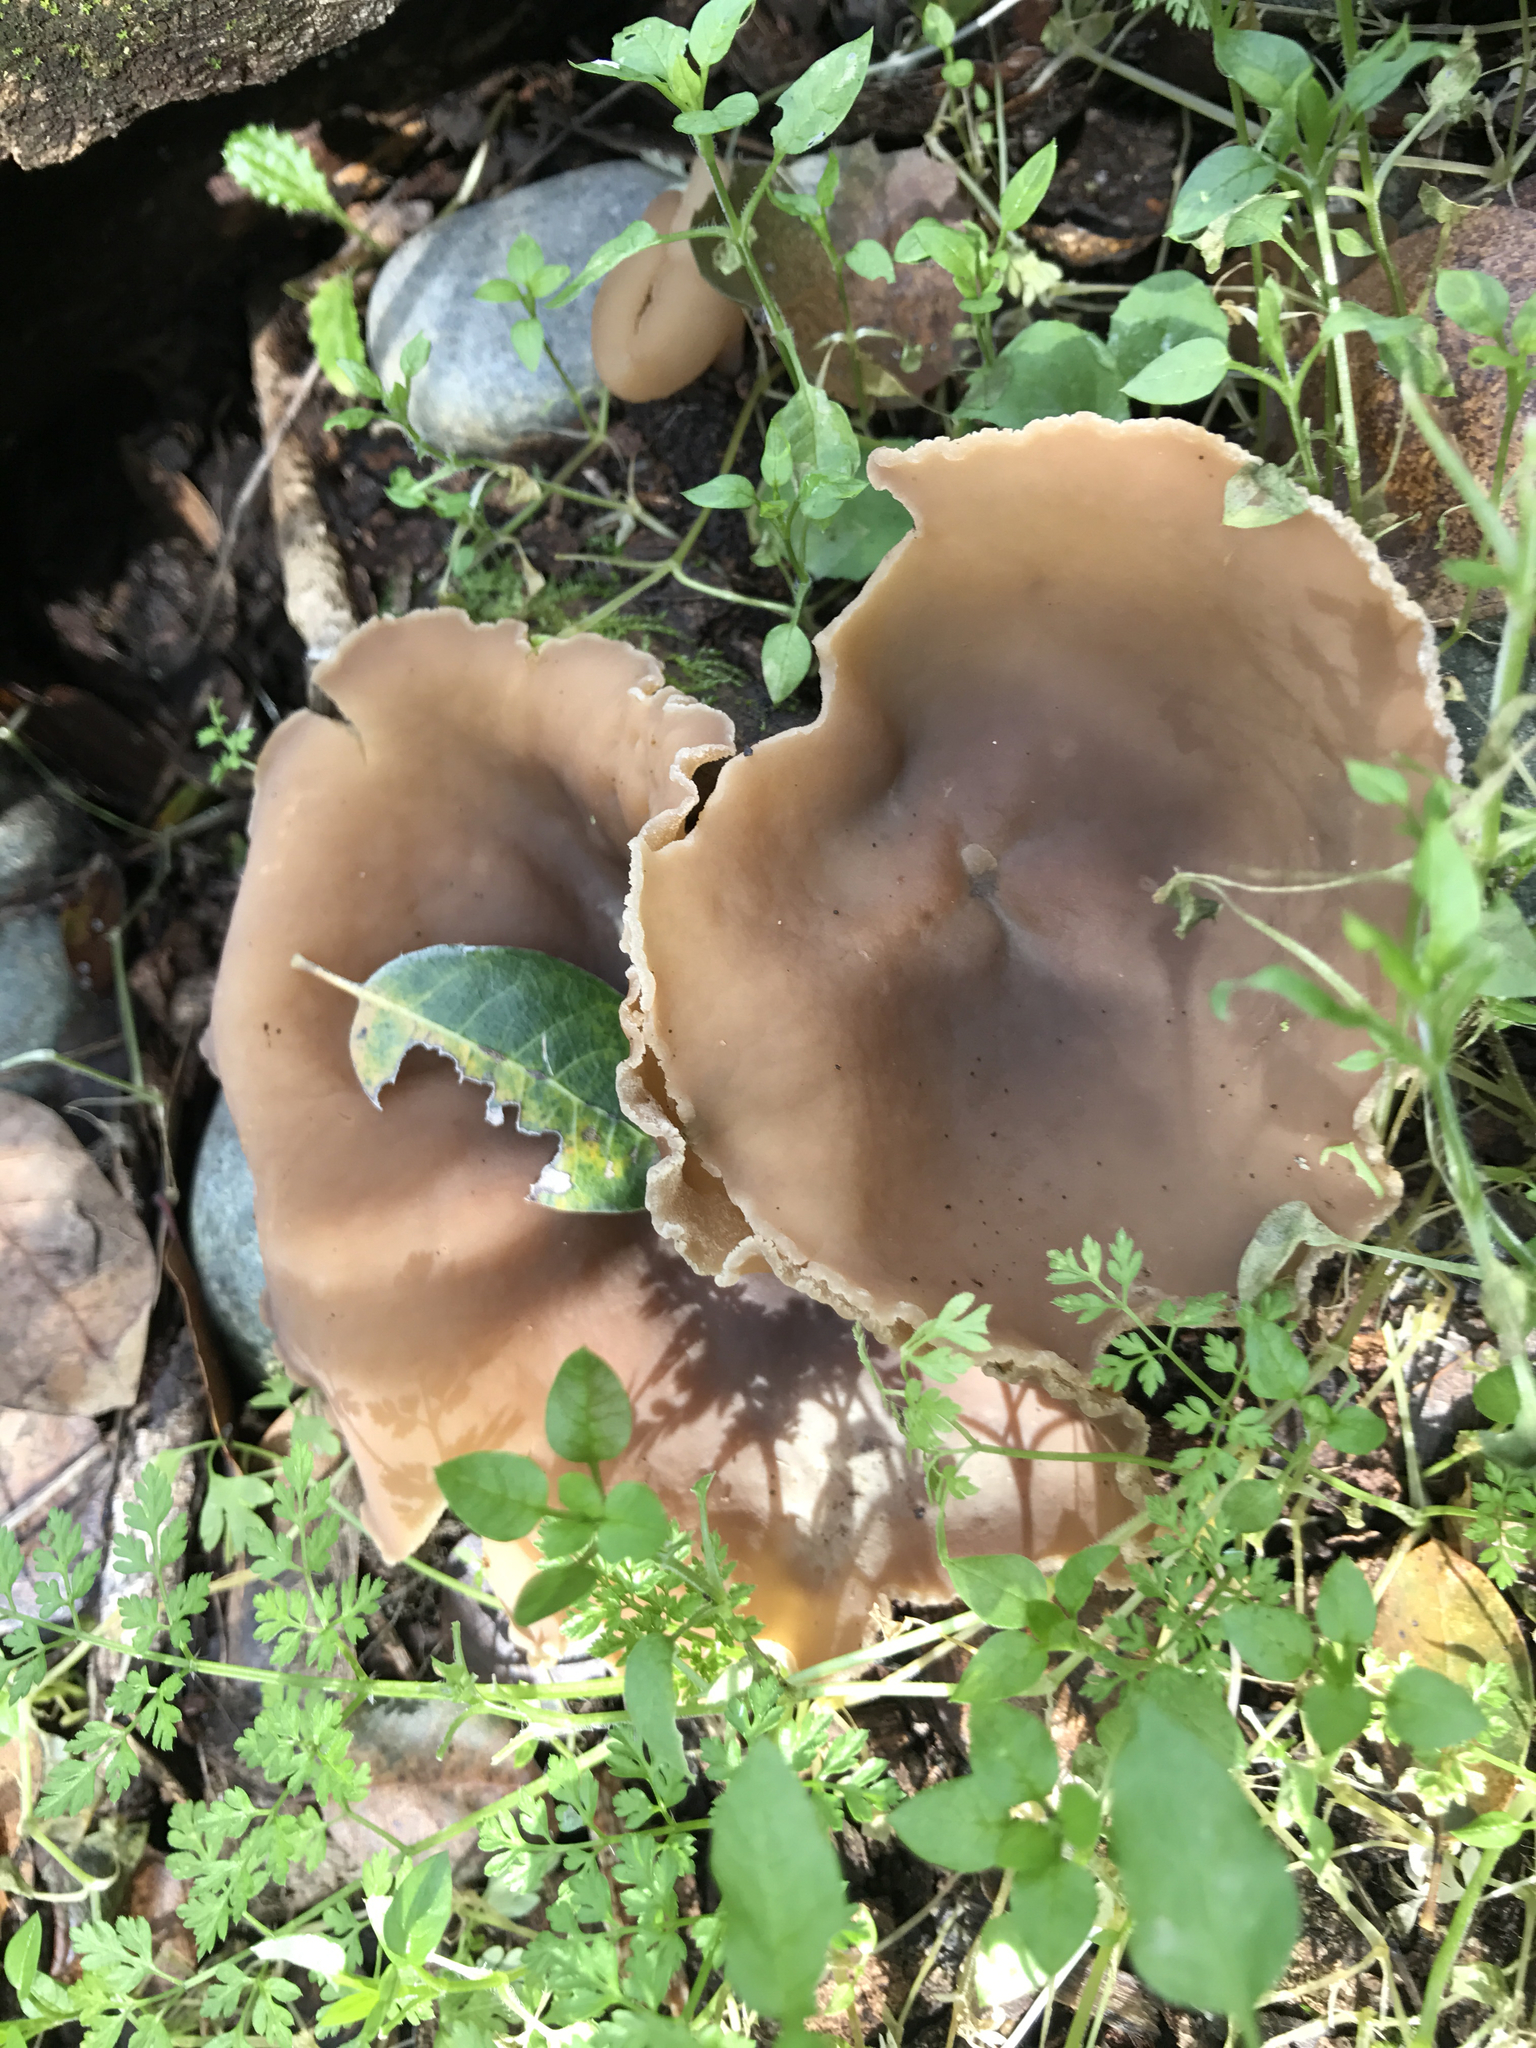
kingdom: Fungi
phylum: Ascomycota
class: Pezizomycetes
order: Pezizales
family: Pezizaceae
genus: Peziza
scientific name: Peziza varia
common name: Layered cup
